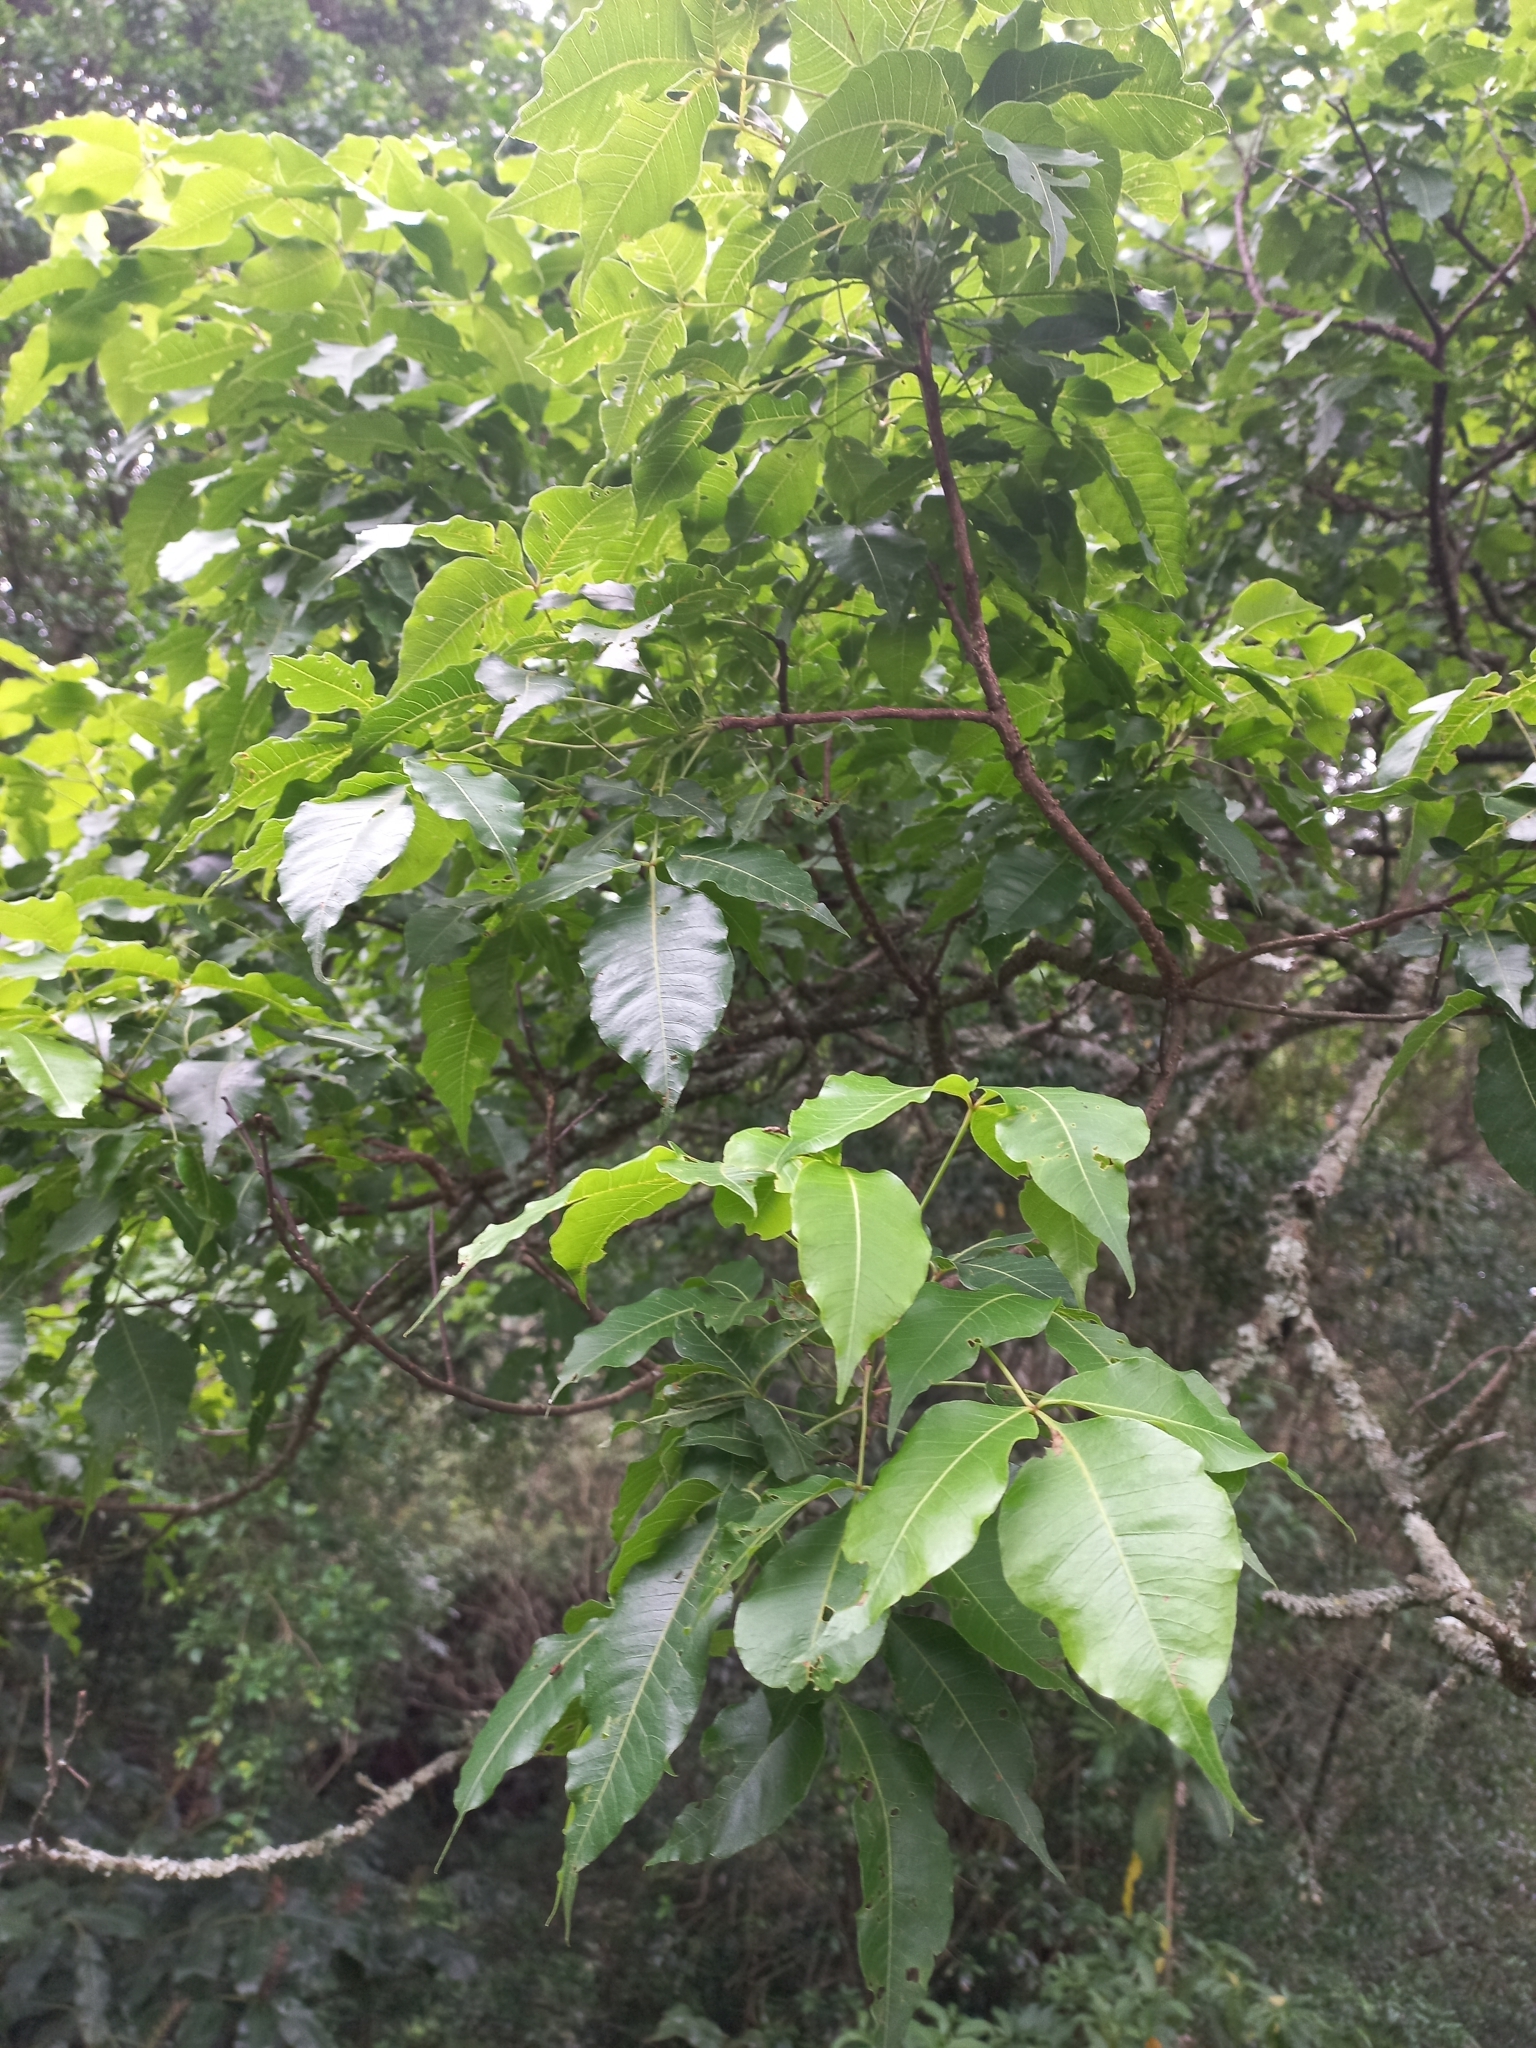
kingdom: Plantae
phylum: Tracheophyta
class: Magnoliopsida
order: Sapindales
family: Anacardiaceae
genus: Searsia
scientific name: Searsia chirindensis
